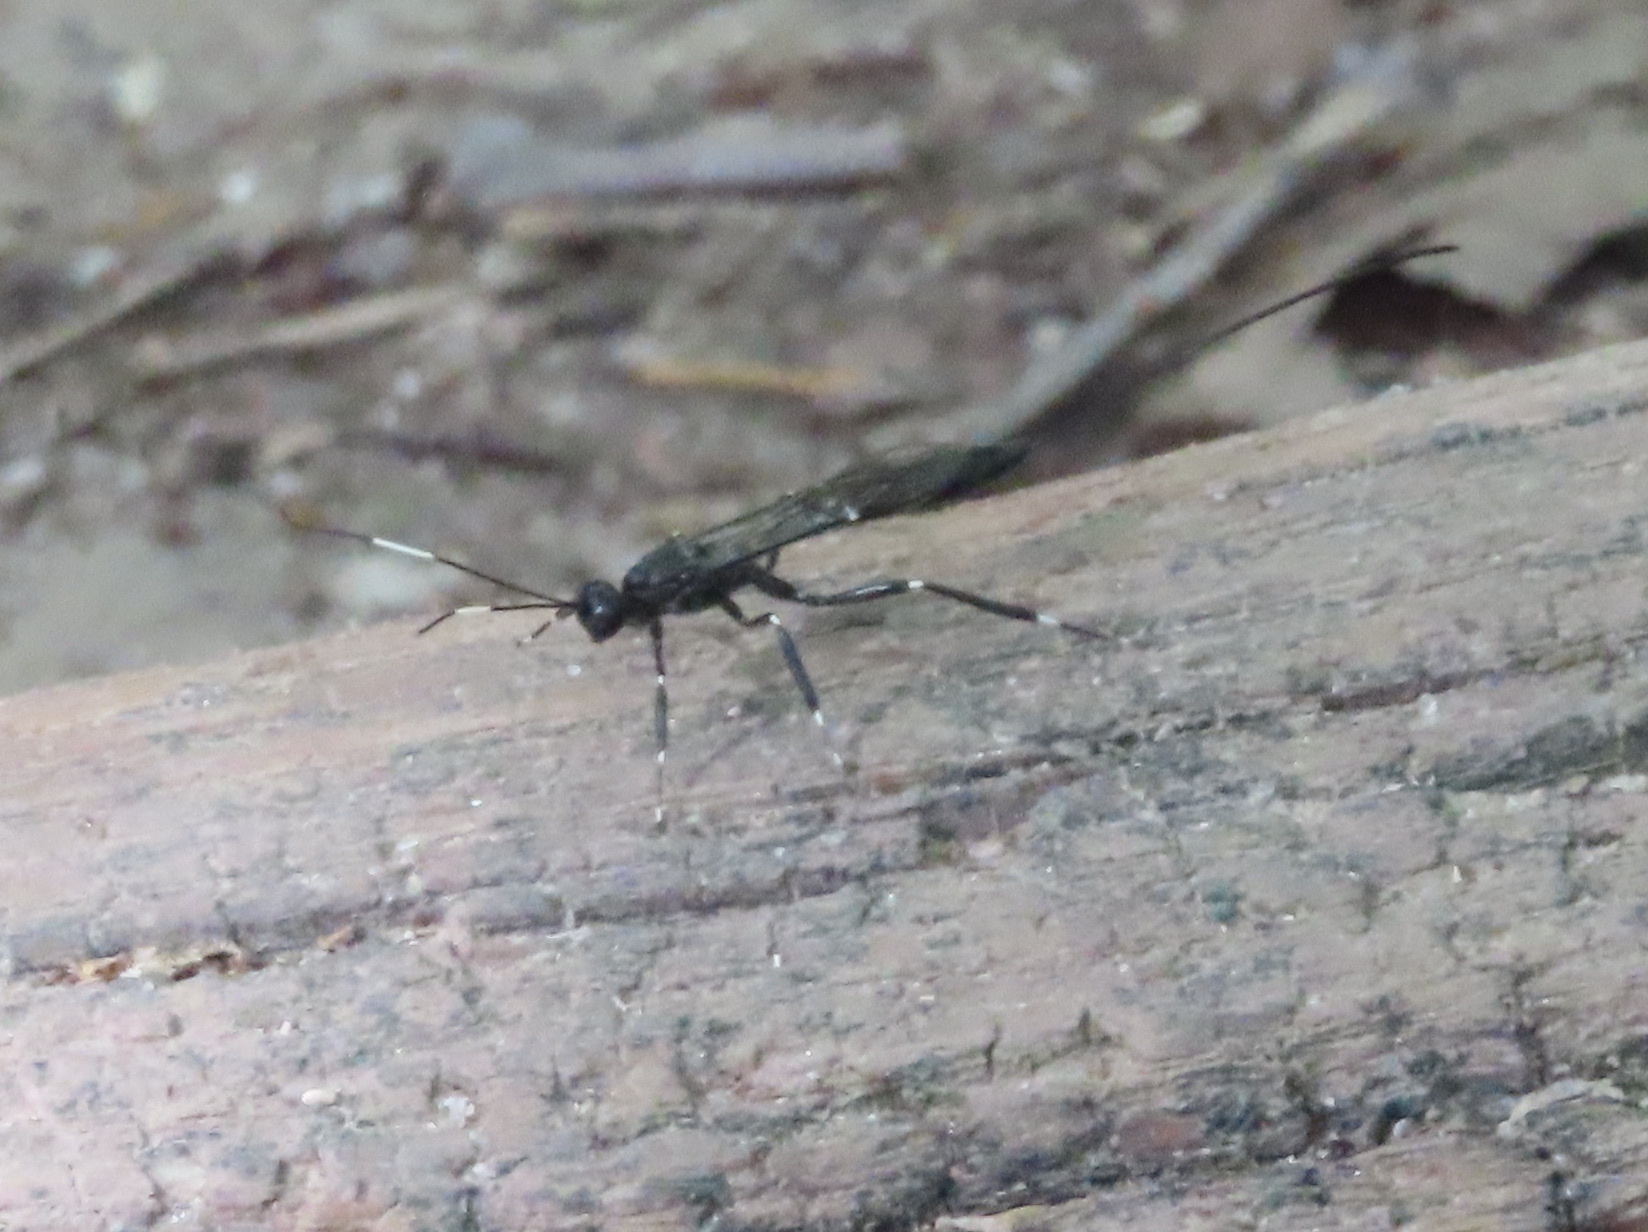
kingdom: Animalia
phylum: Arthropoda
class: Insecta
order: Hymenoptera
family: Ichneumonidae
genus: Xorides
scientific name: Xorides stigmapterus
